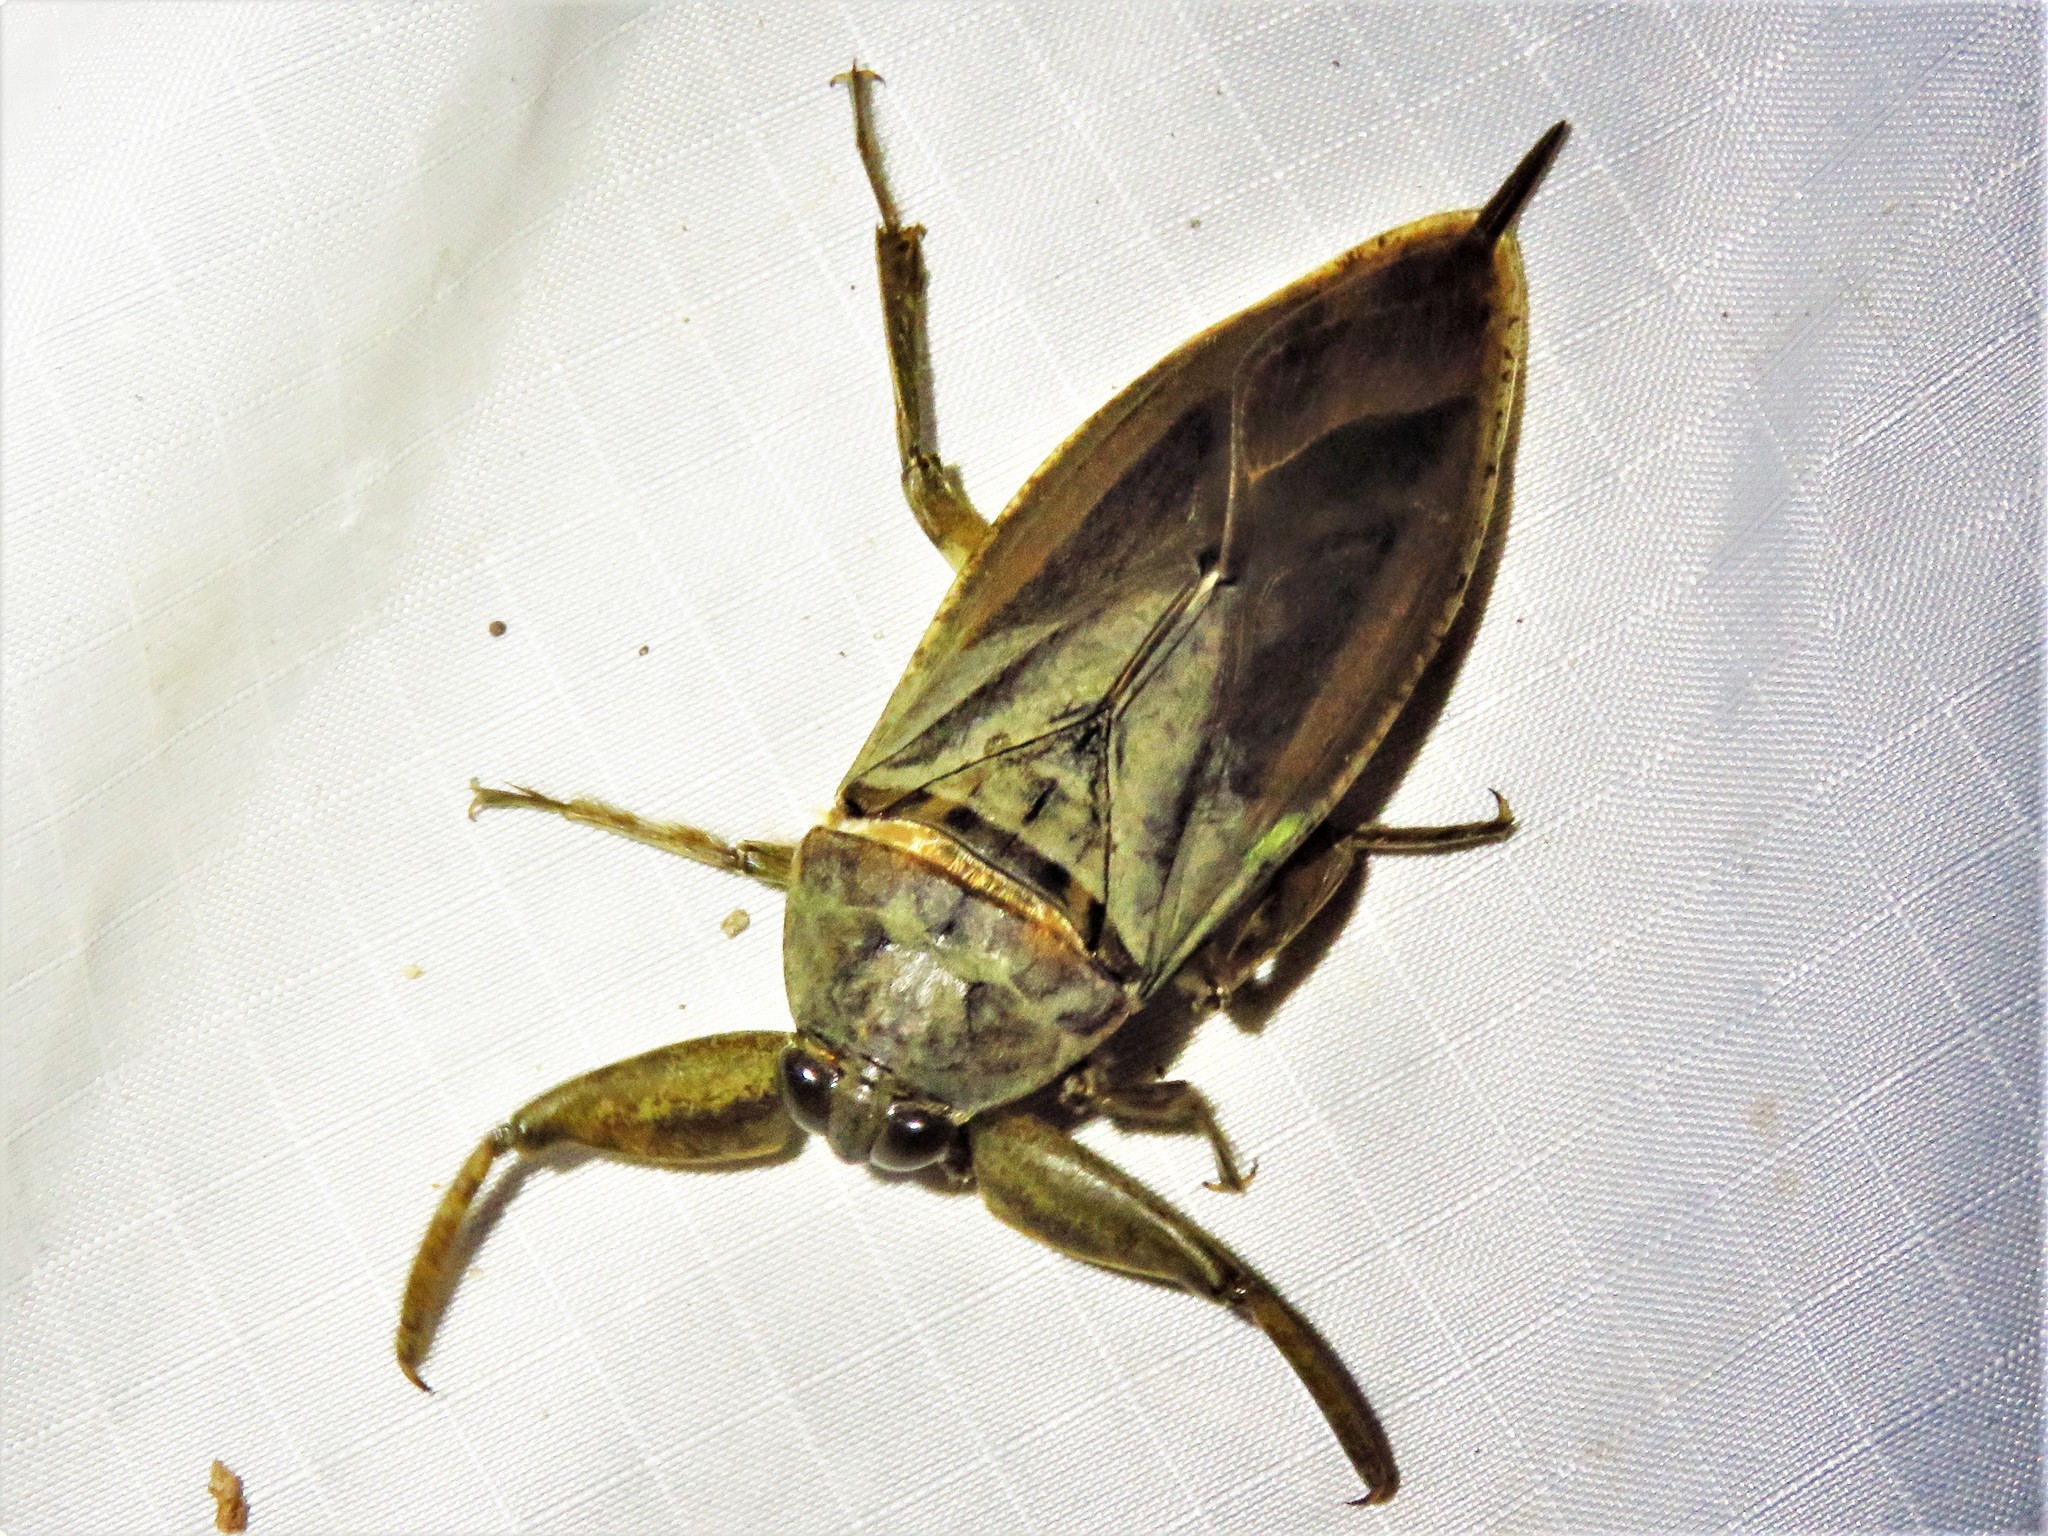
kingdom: Animalia
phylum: Arthropoda
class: Insecta
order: Hemiptera
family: Belostomatidae
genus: Lethocerus
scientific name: Lethocerus uhleri
